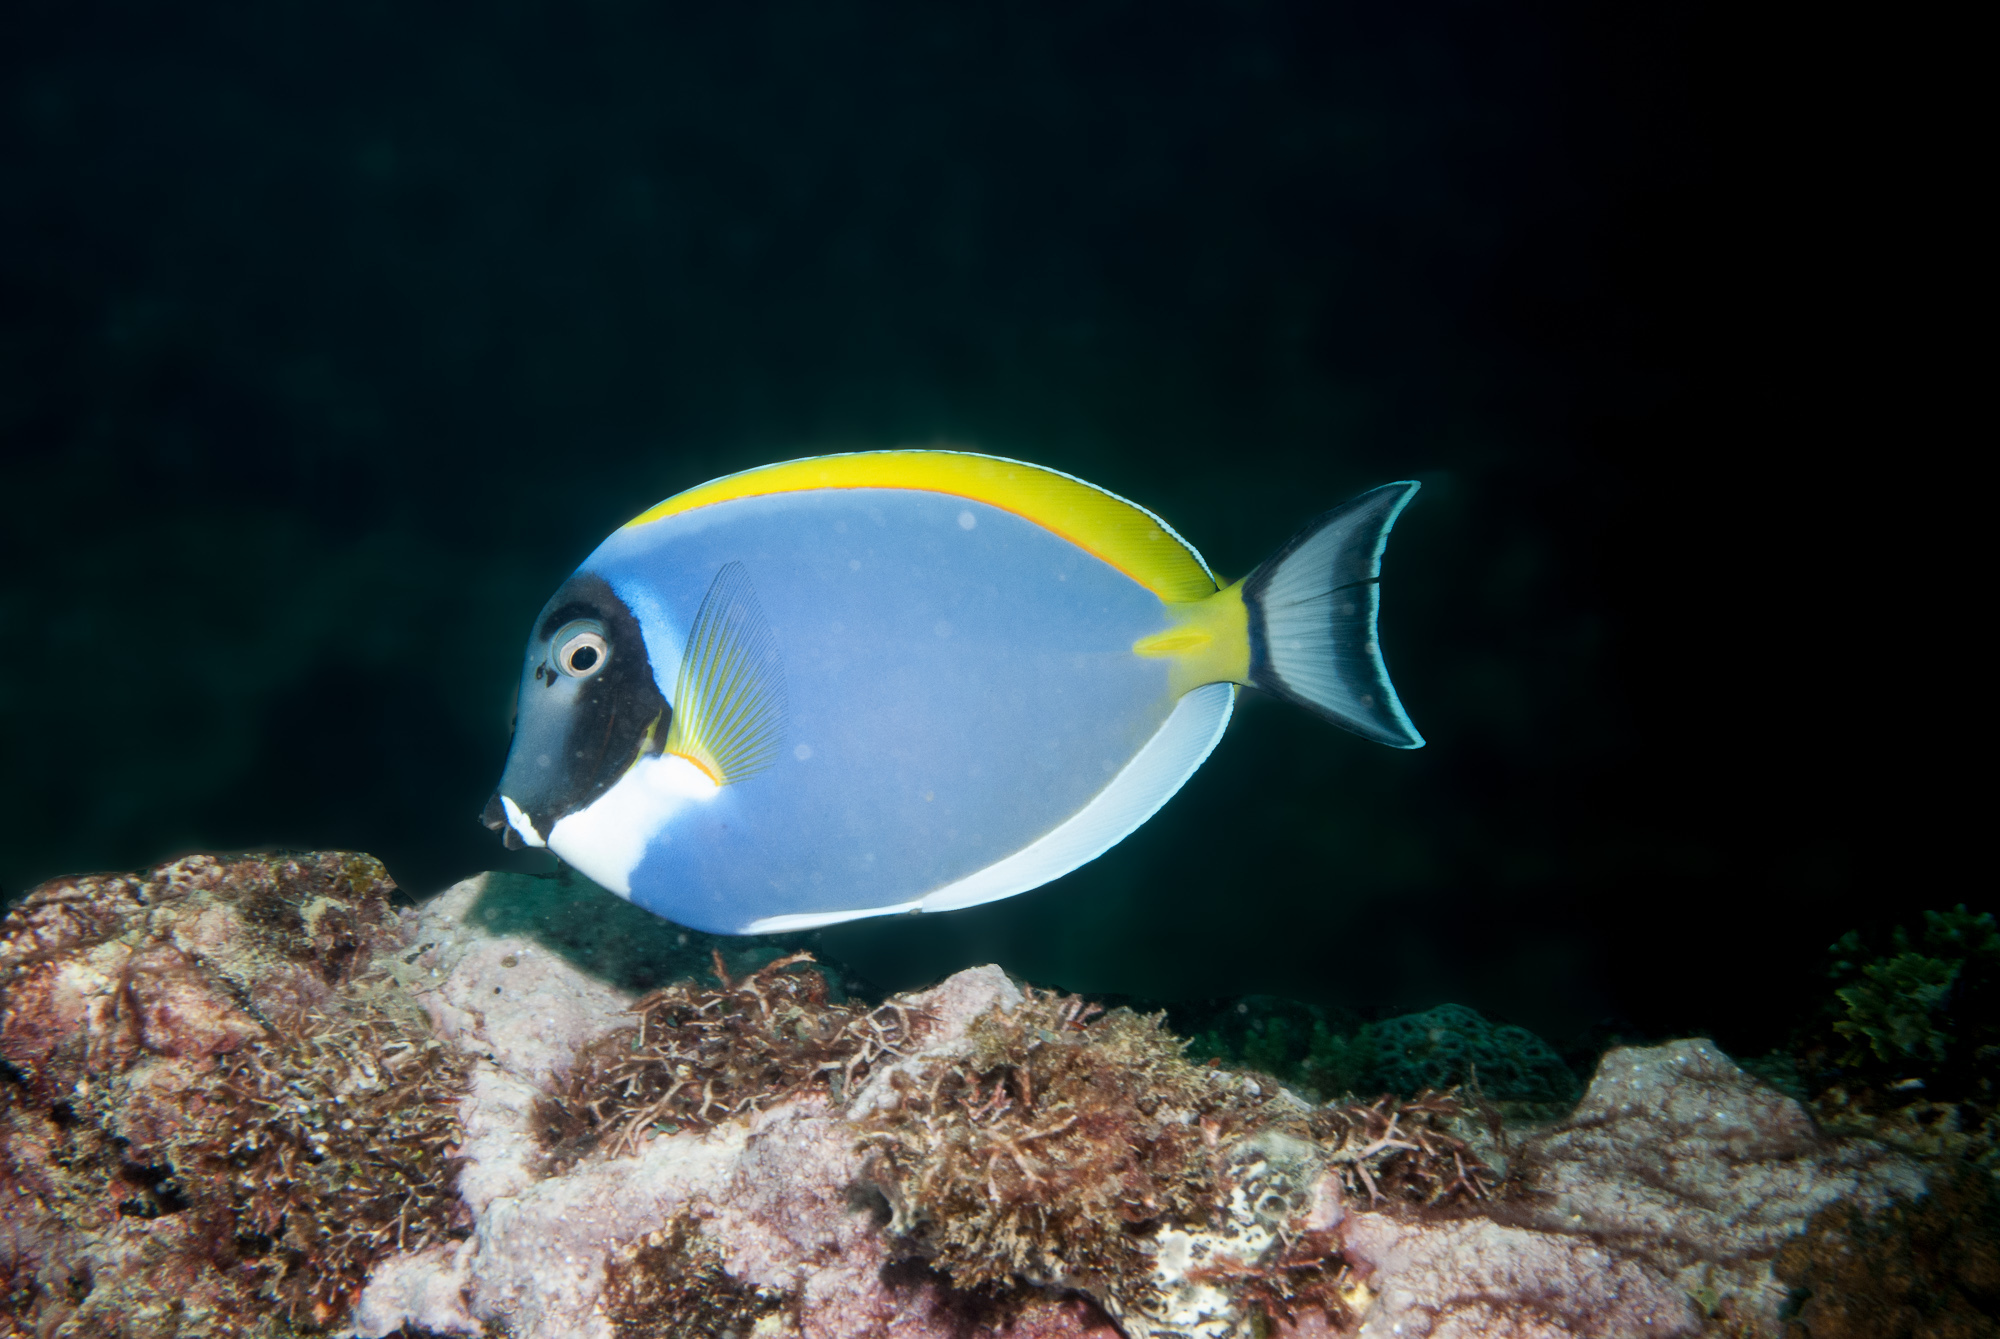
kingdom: Animalia
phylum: Chordata
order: Perciformes
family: Acanthuridae
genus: Acanthurus
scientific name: Acanthurus leucosternon
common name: Blue surgeonfish
